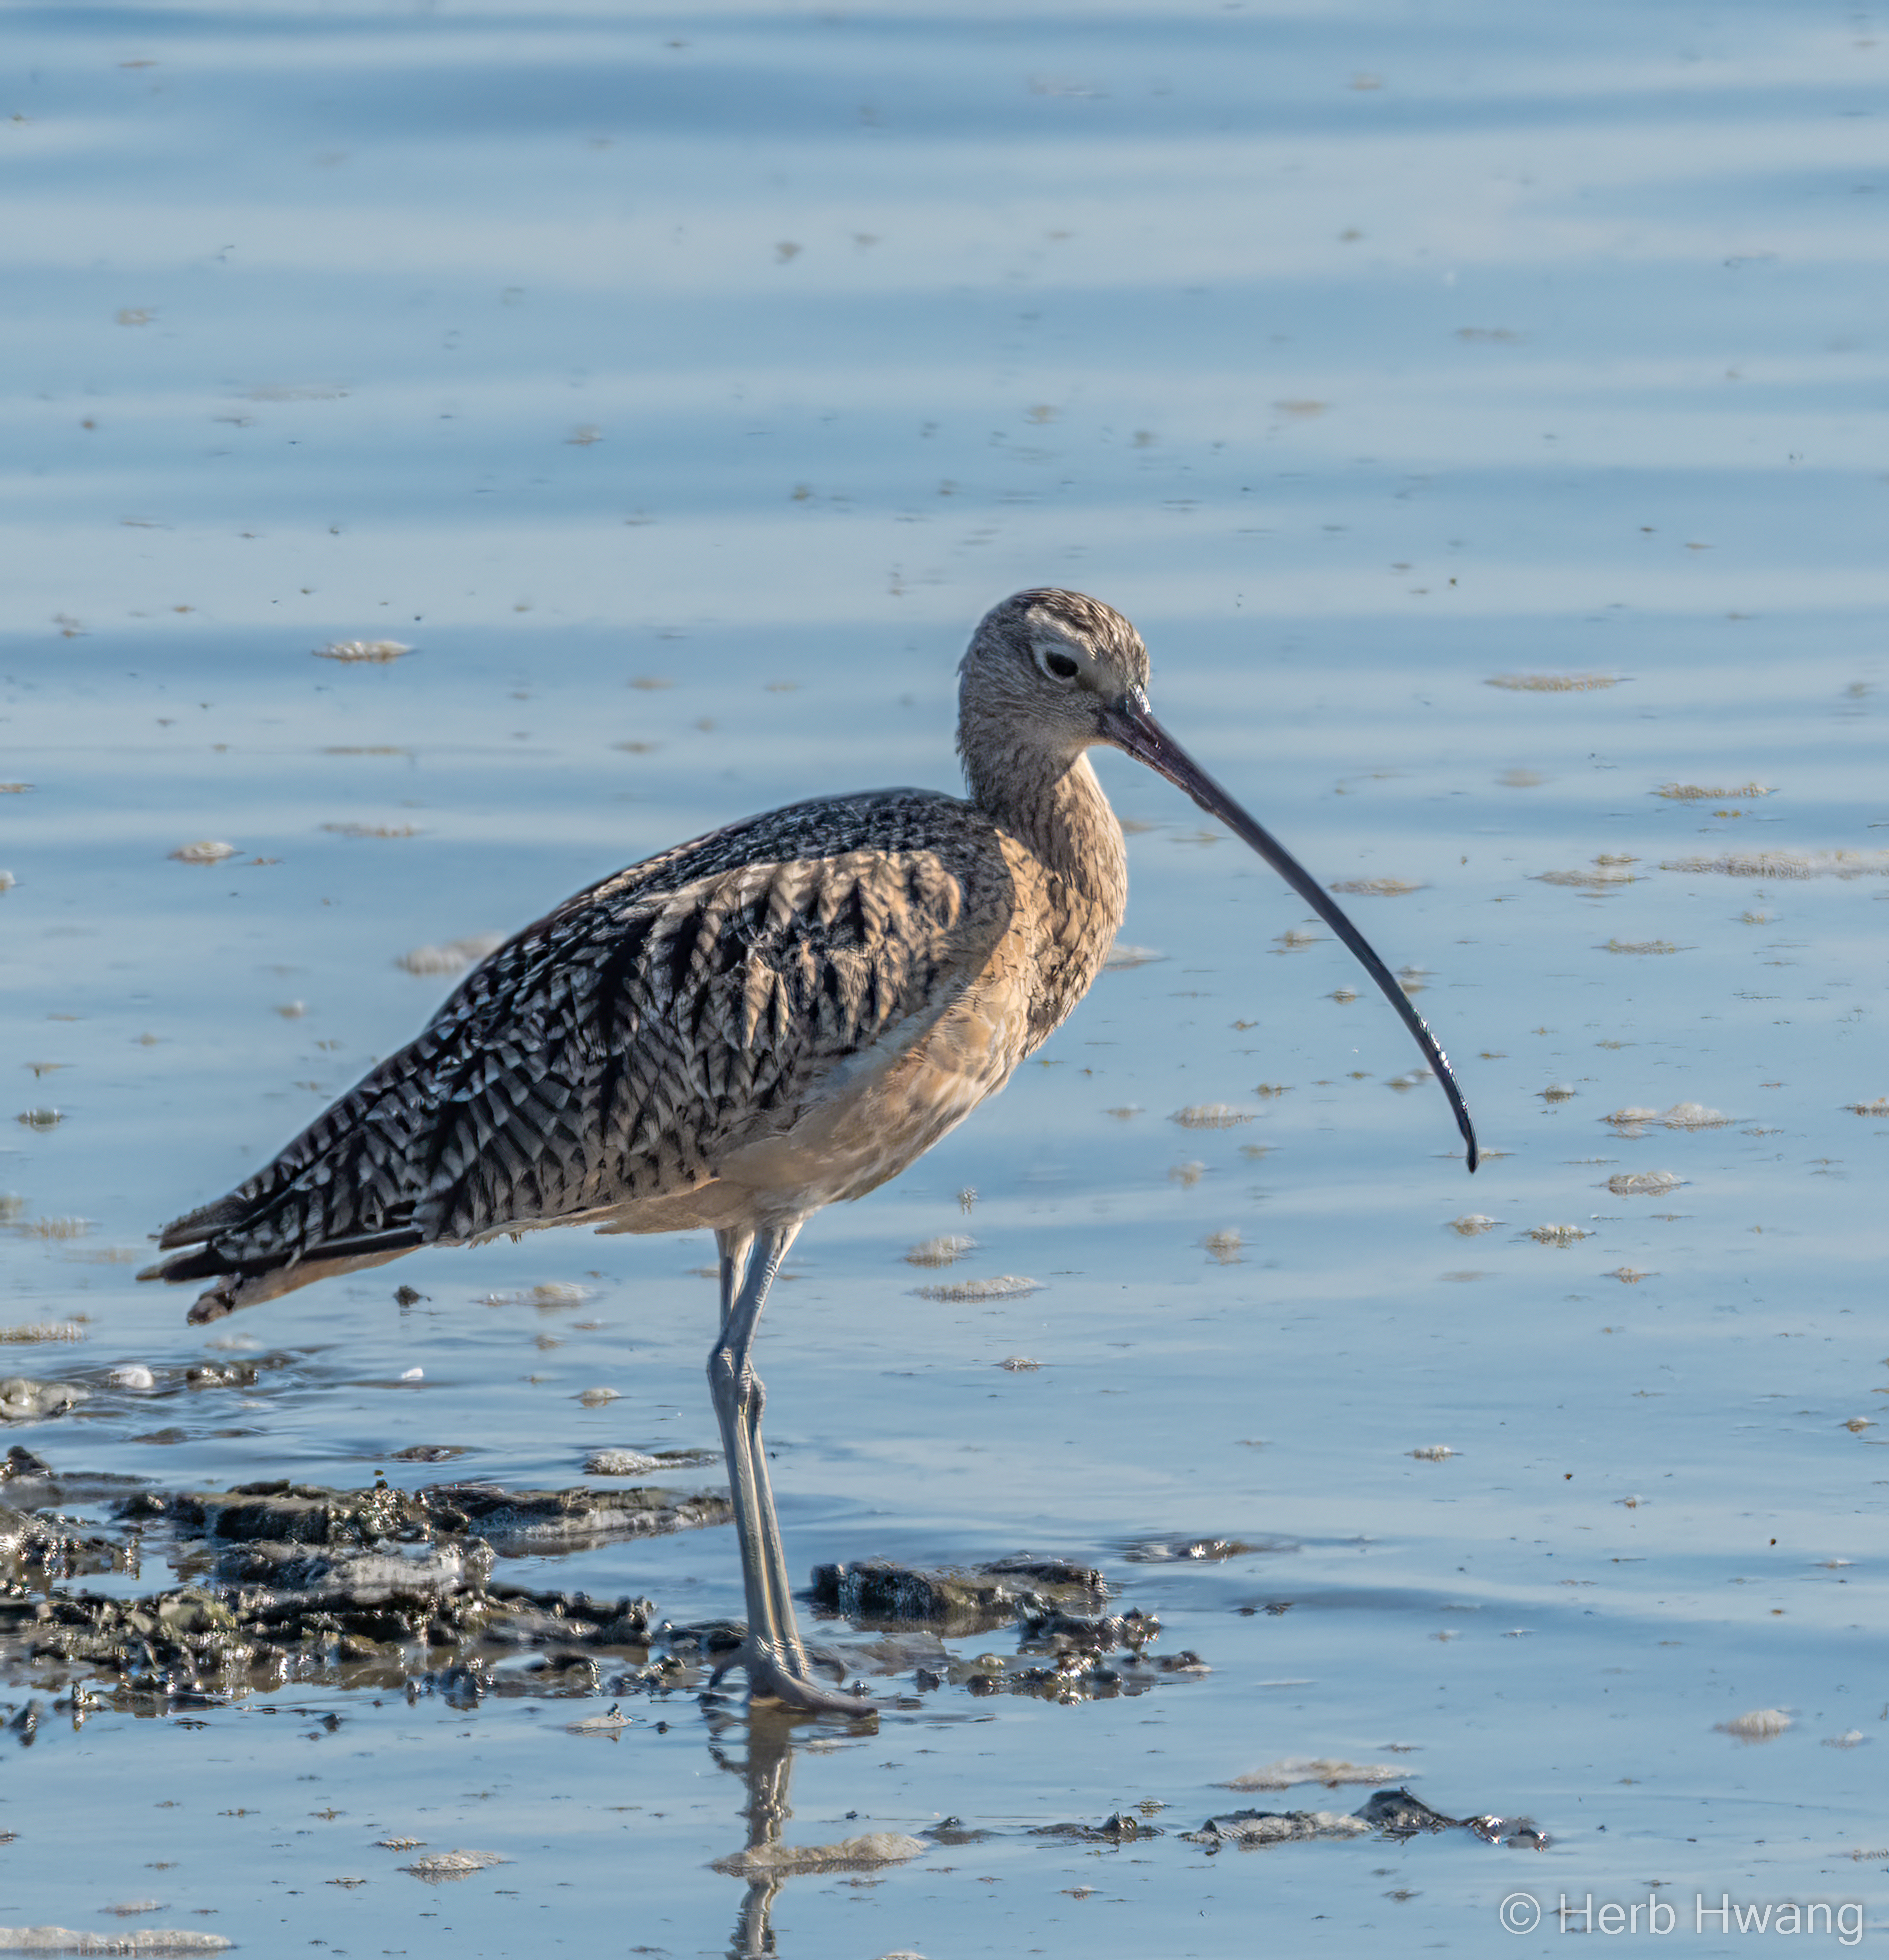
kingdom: Animalia
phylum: Chordata
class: Aves
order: Charadriiformes
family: Scolopacidae
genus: Numenius
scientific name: Numenius americanus
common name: Long-billed curlew
